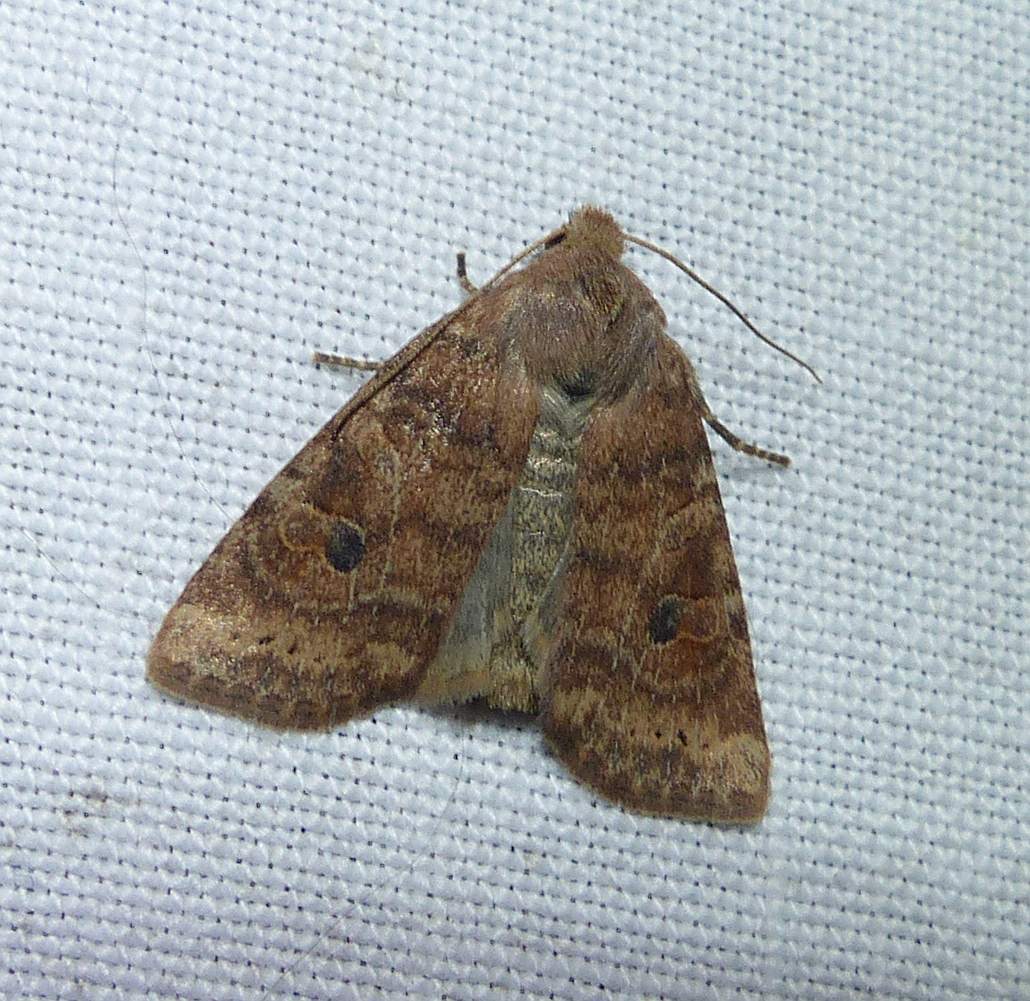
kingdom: Animalia
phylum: Arthropoda
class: Insecta
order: Lepidoptera
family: Noctuidae
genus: Anathix
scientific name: Anathix puta
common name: Puta sallow
